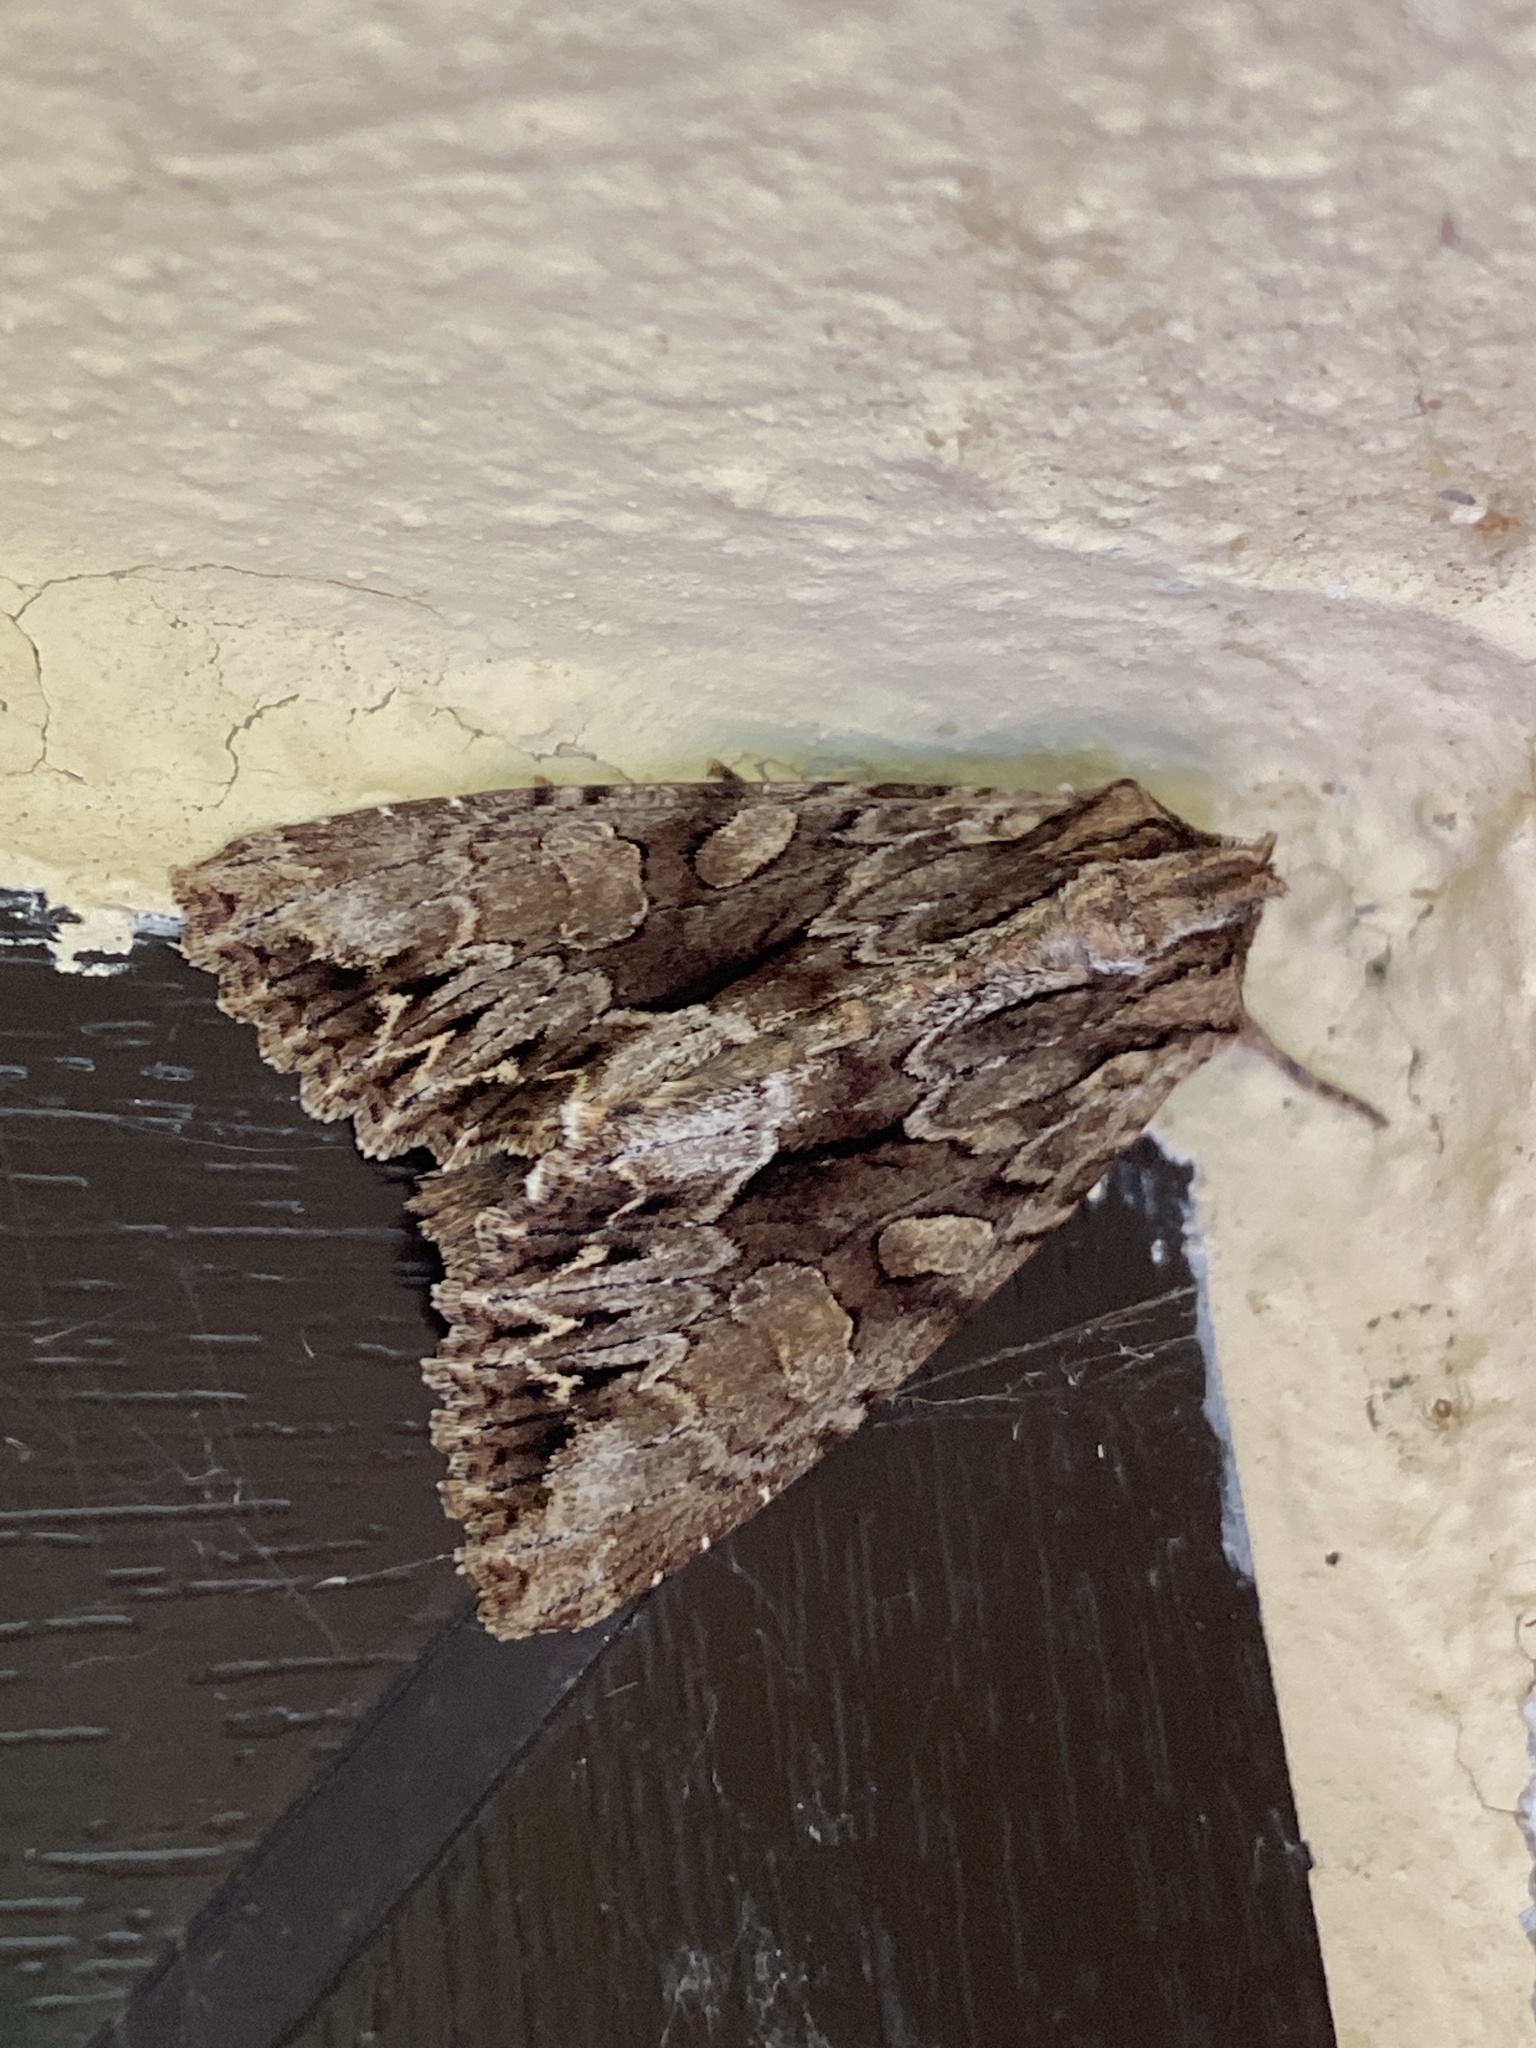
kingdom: Animalia
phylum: Arthropoda
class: Insecta
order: Lepidoptera
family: Noctuidae
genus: Apamea
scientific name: Apamea monoglypha
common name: Dark arches
